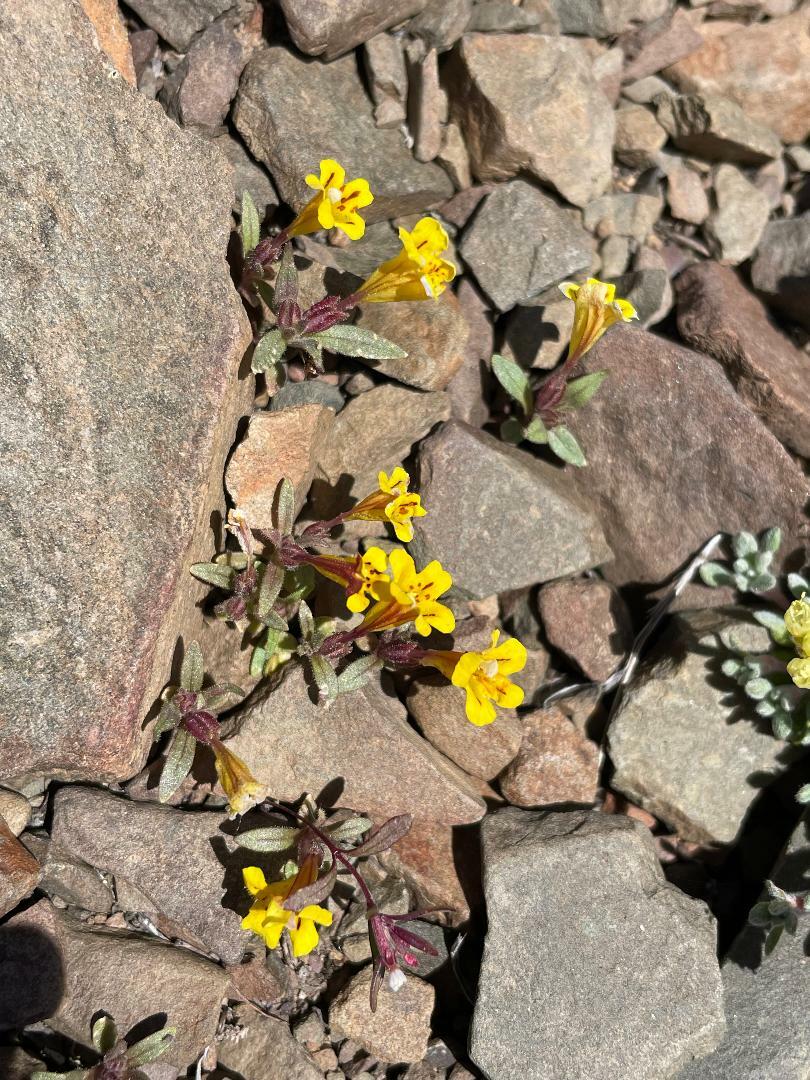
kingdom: Plantae
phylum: Tracheophyta
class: Magnoliopsida
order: Lamiales
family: Phrymaceae
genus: Diplacus
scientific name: Diplacus mephiticus
